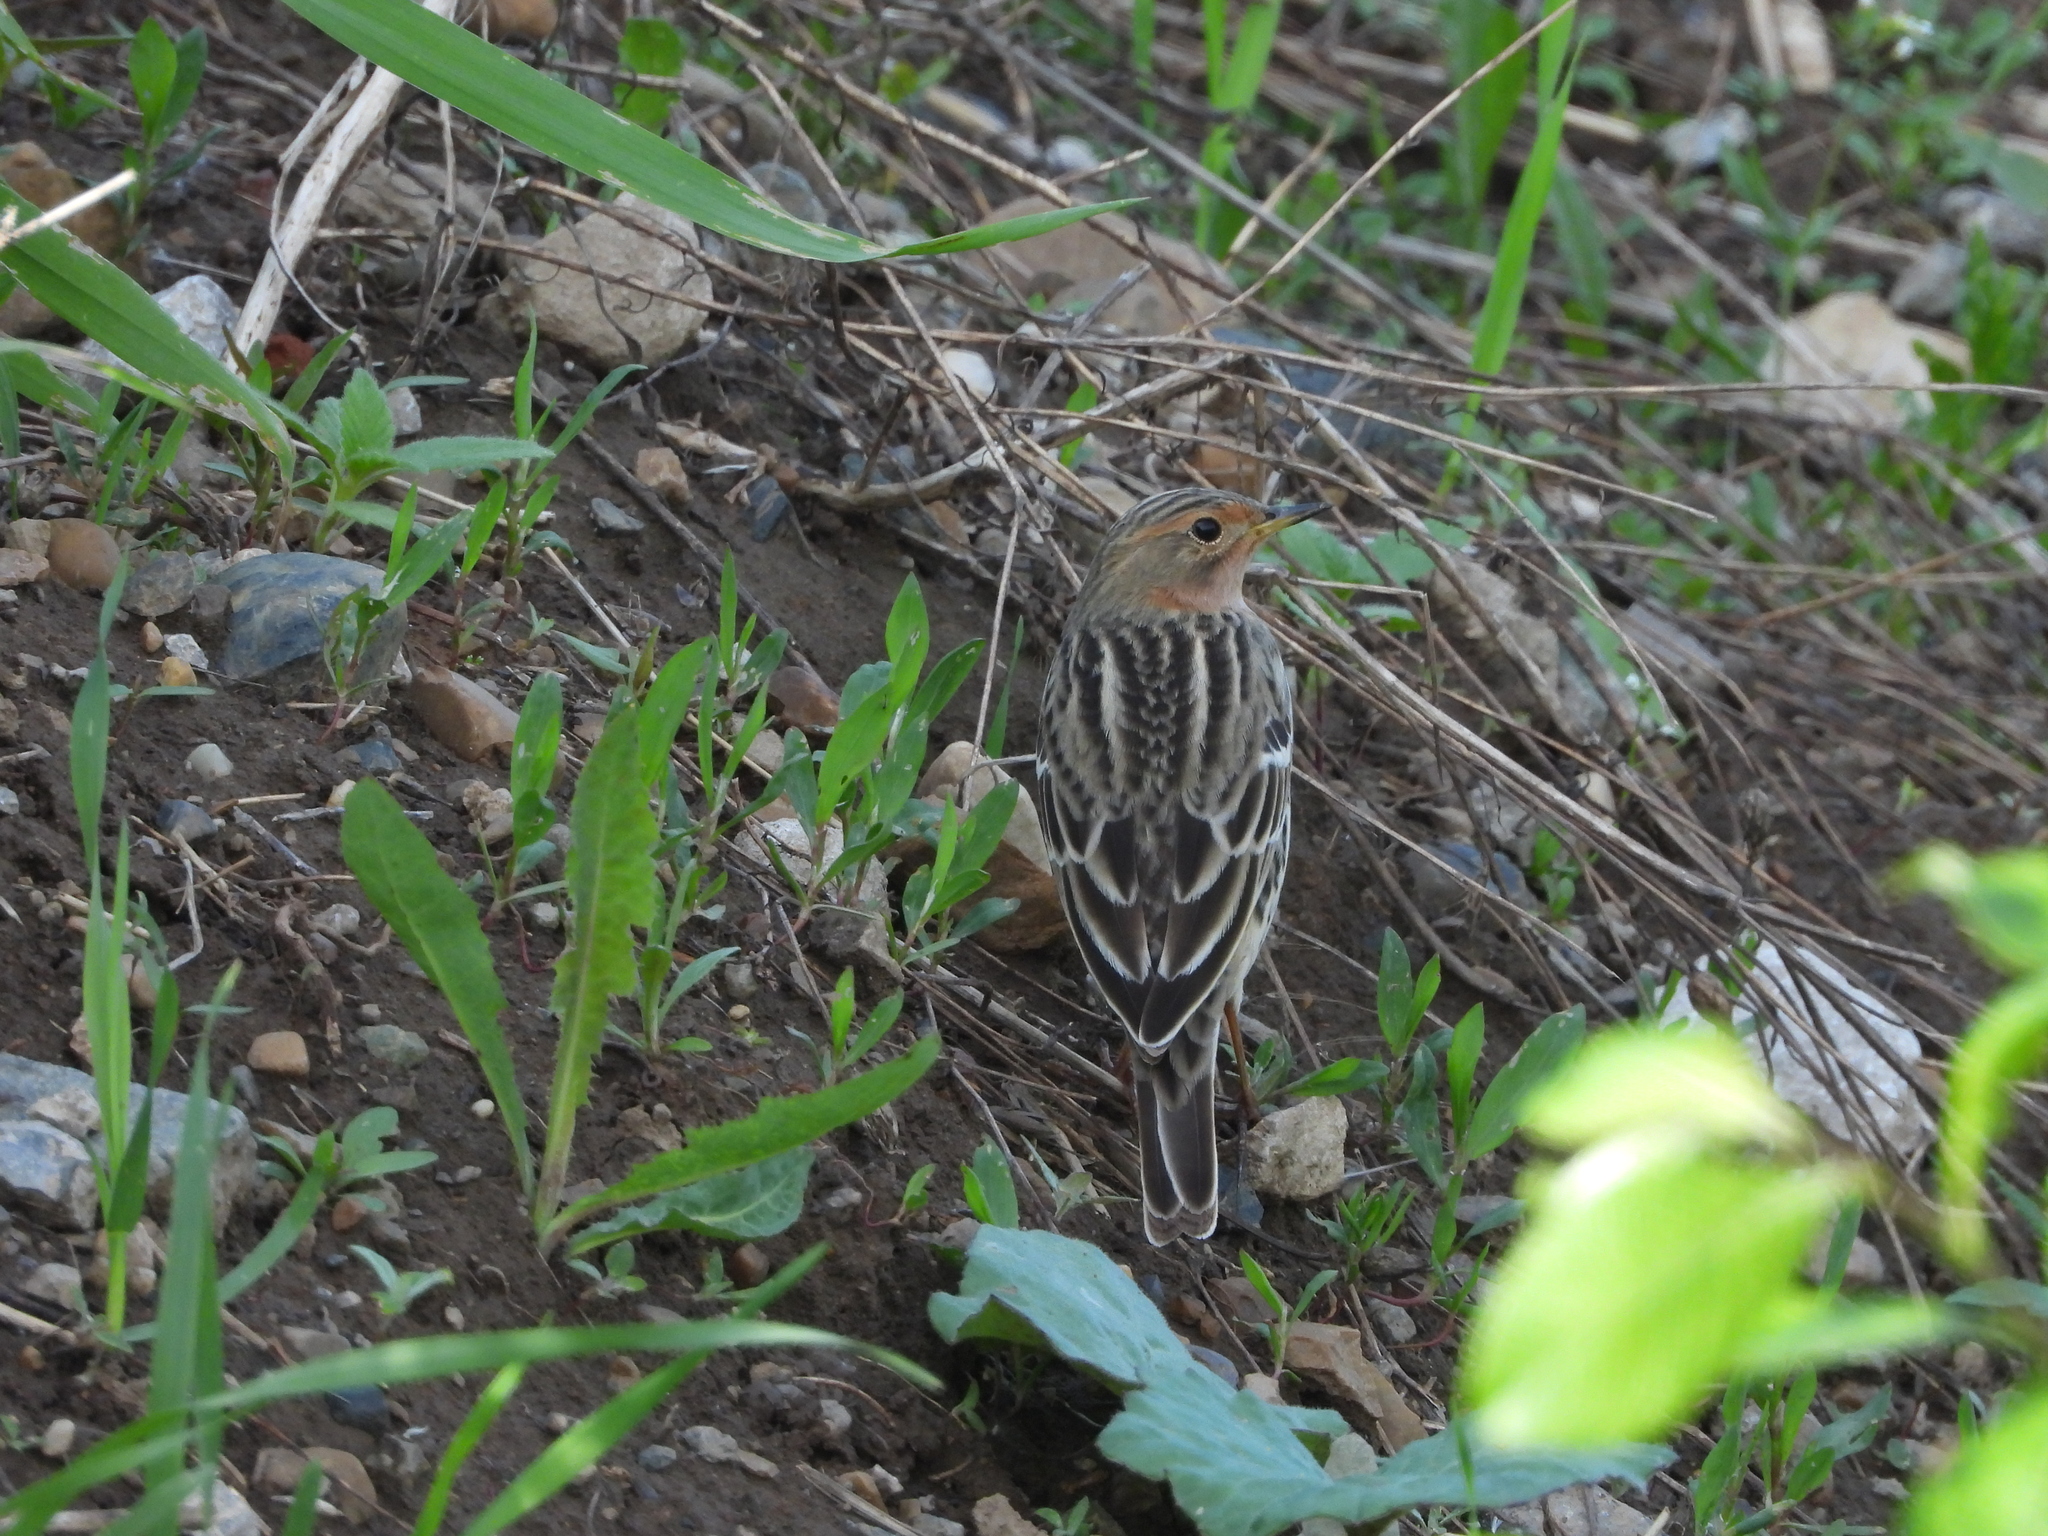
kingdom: Animalia
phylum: Chordata
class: Aves
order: Passeriformes
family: Motacillidae
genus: Anthus
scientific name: Anthus cervinus
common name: Red-throated pipit
